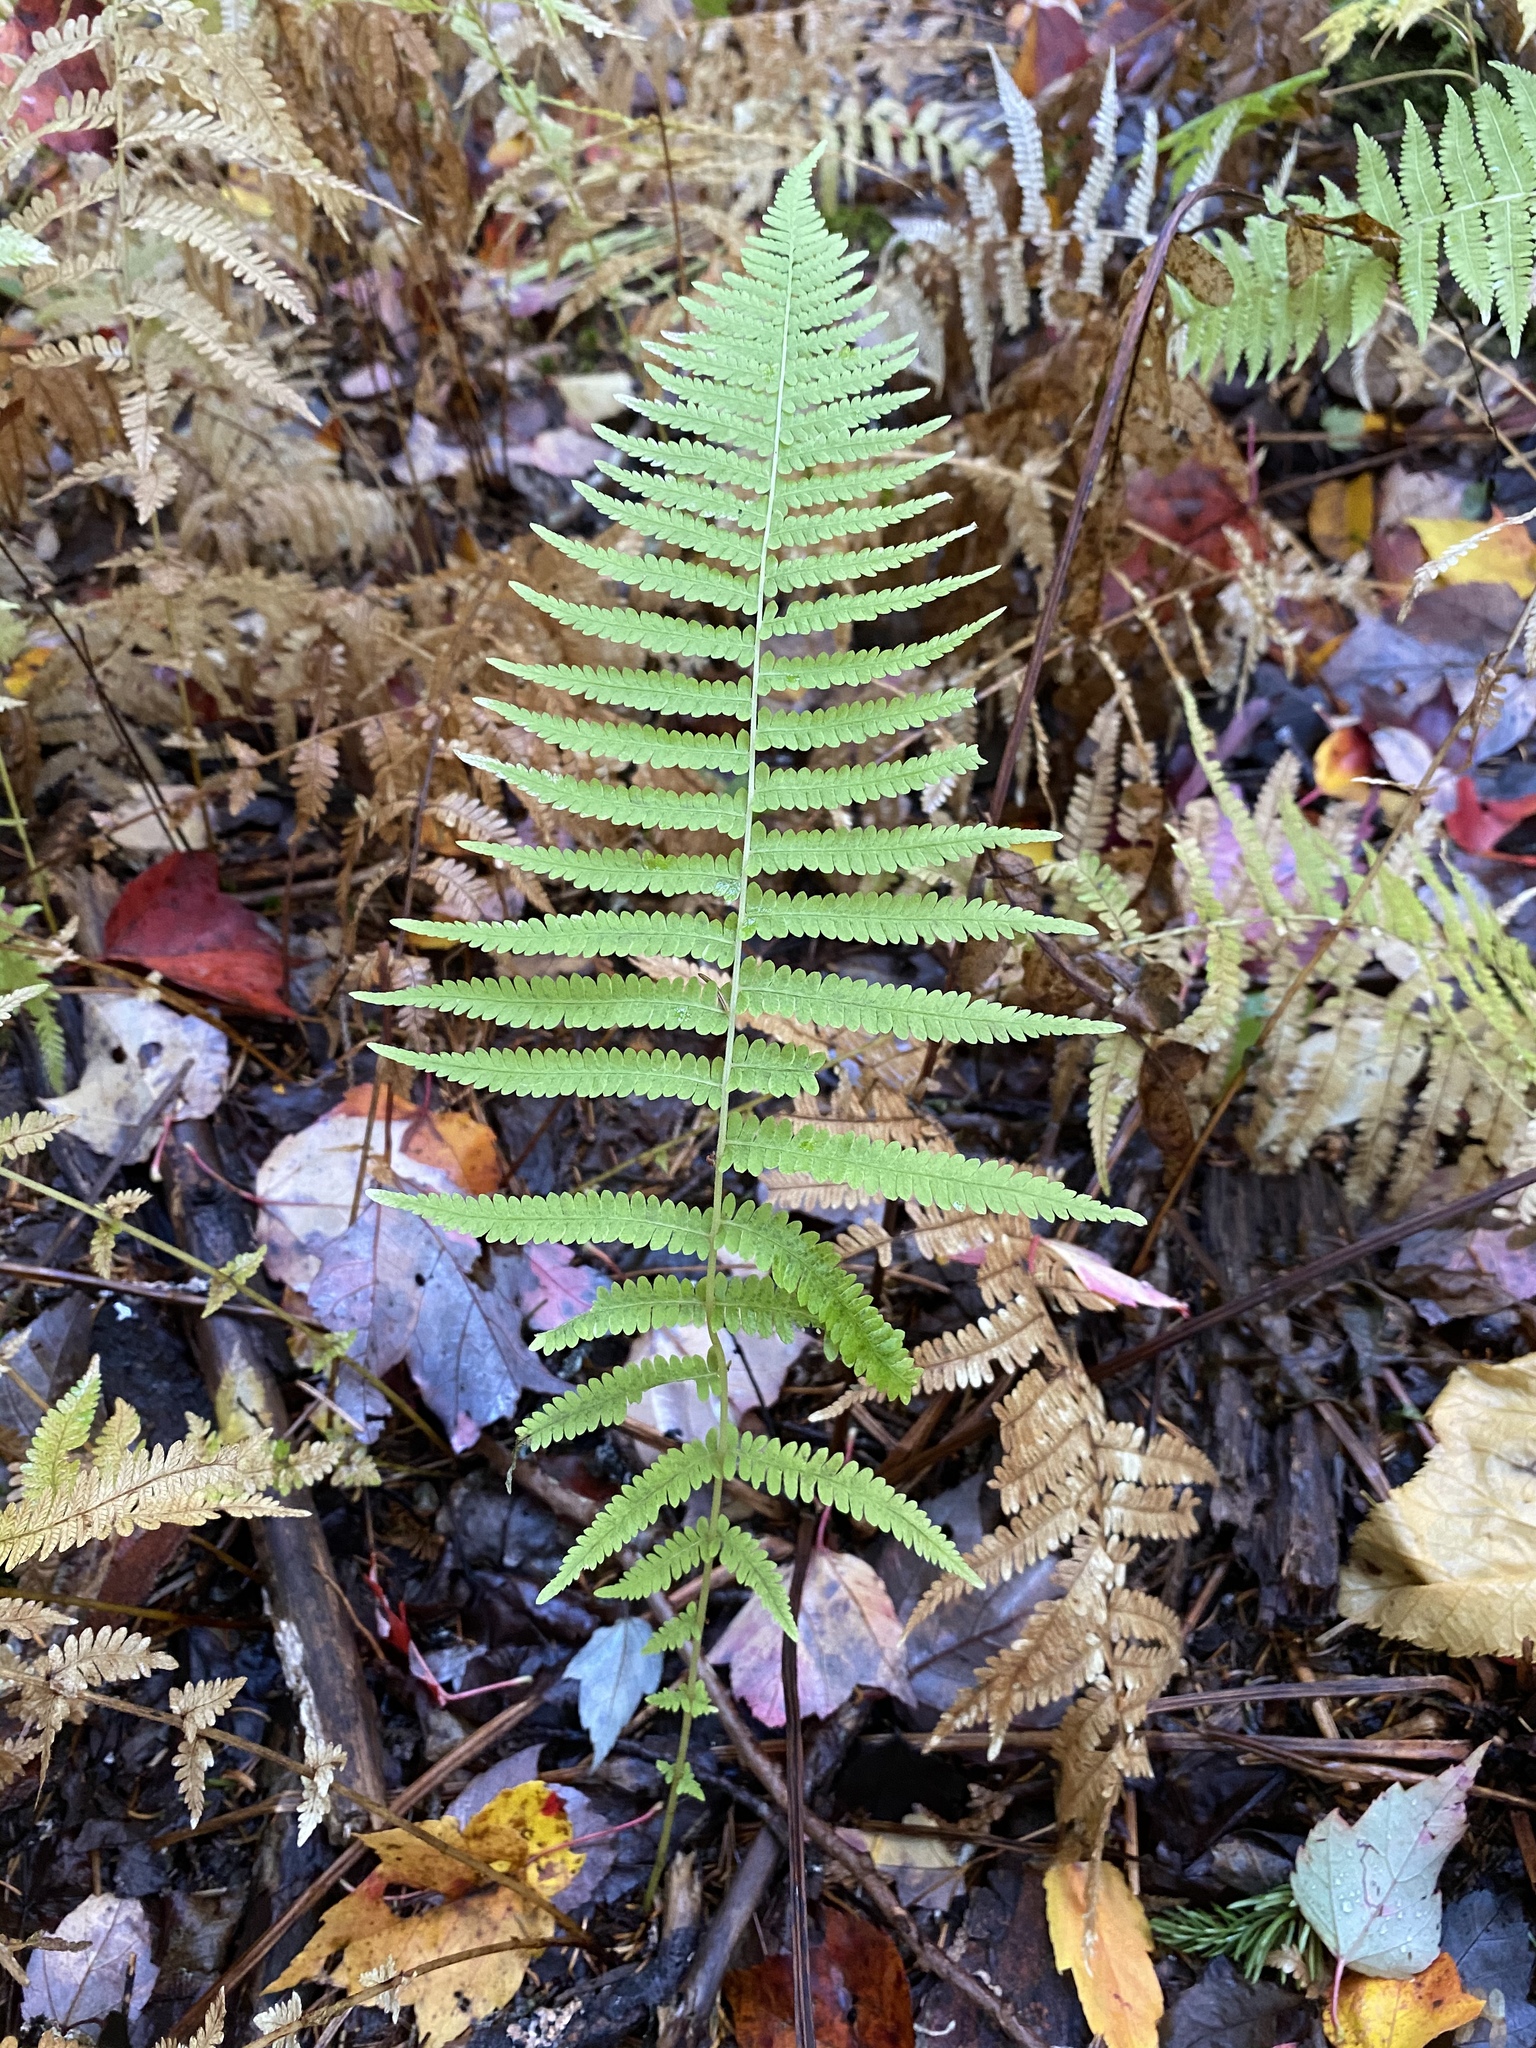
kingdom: Plantae
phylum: Tracheophyta
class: Polypodiopsida
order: Polypodiales
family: Thelypteridaceae
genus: Amauropelta
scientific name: Amauropelta noveboracensis
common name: New york fern
